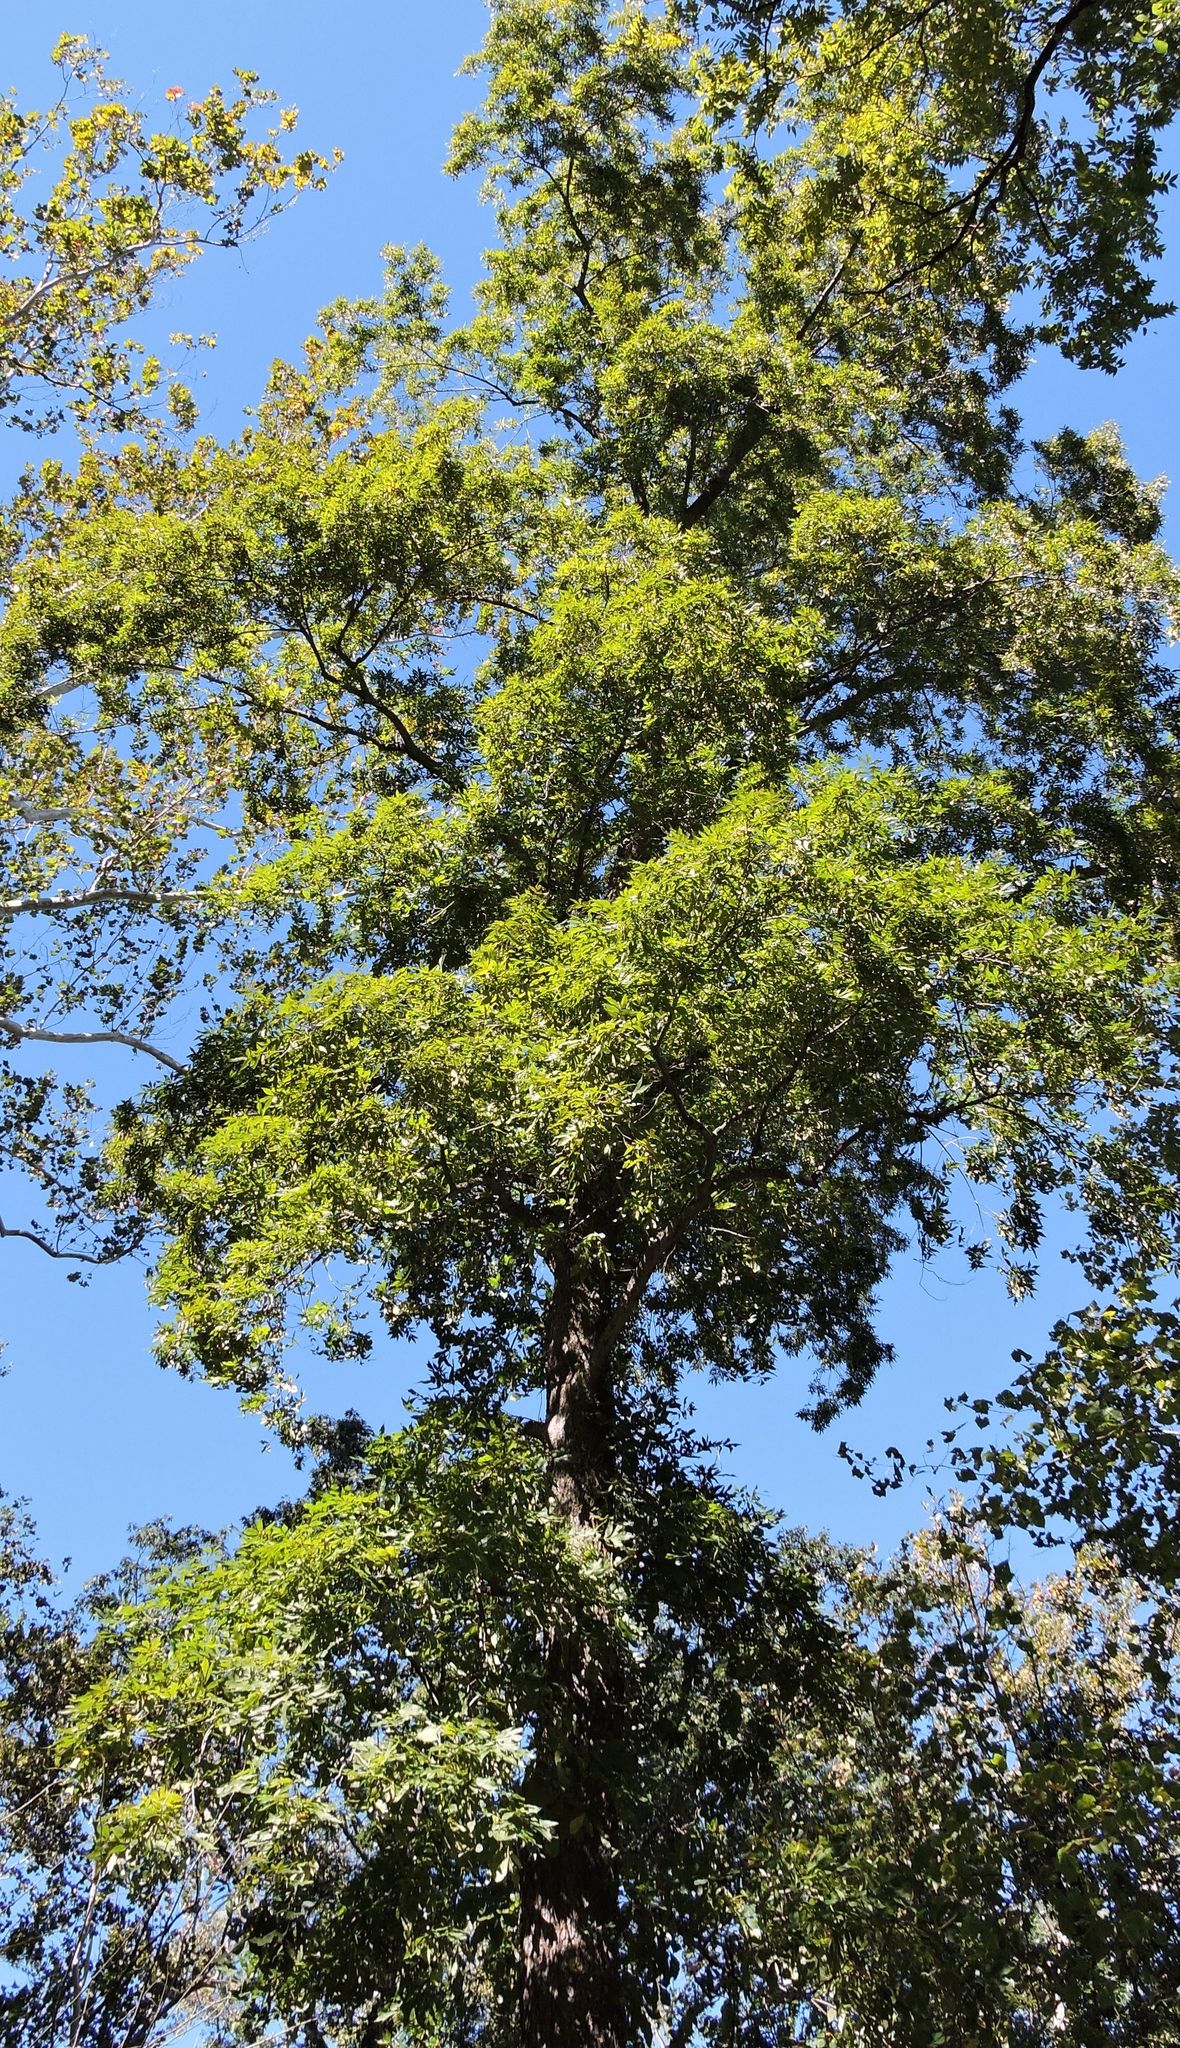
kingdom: Plantae
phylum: Tracheophyta
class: Magnoliopsida
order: Fagales
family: Juglandaceae
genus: Carya
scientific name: Carya cordiformis
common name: Bitternut hickory
